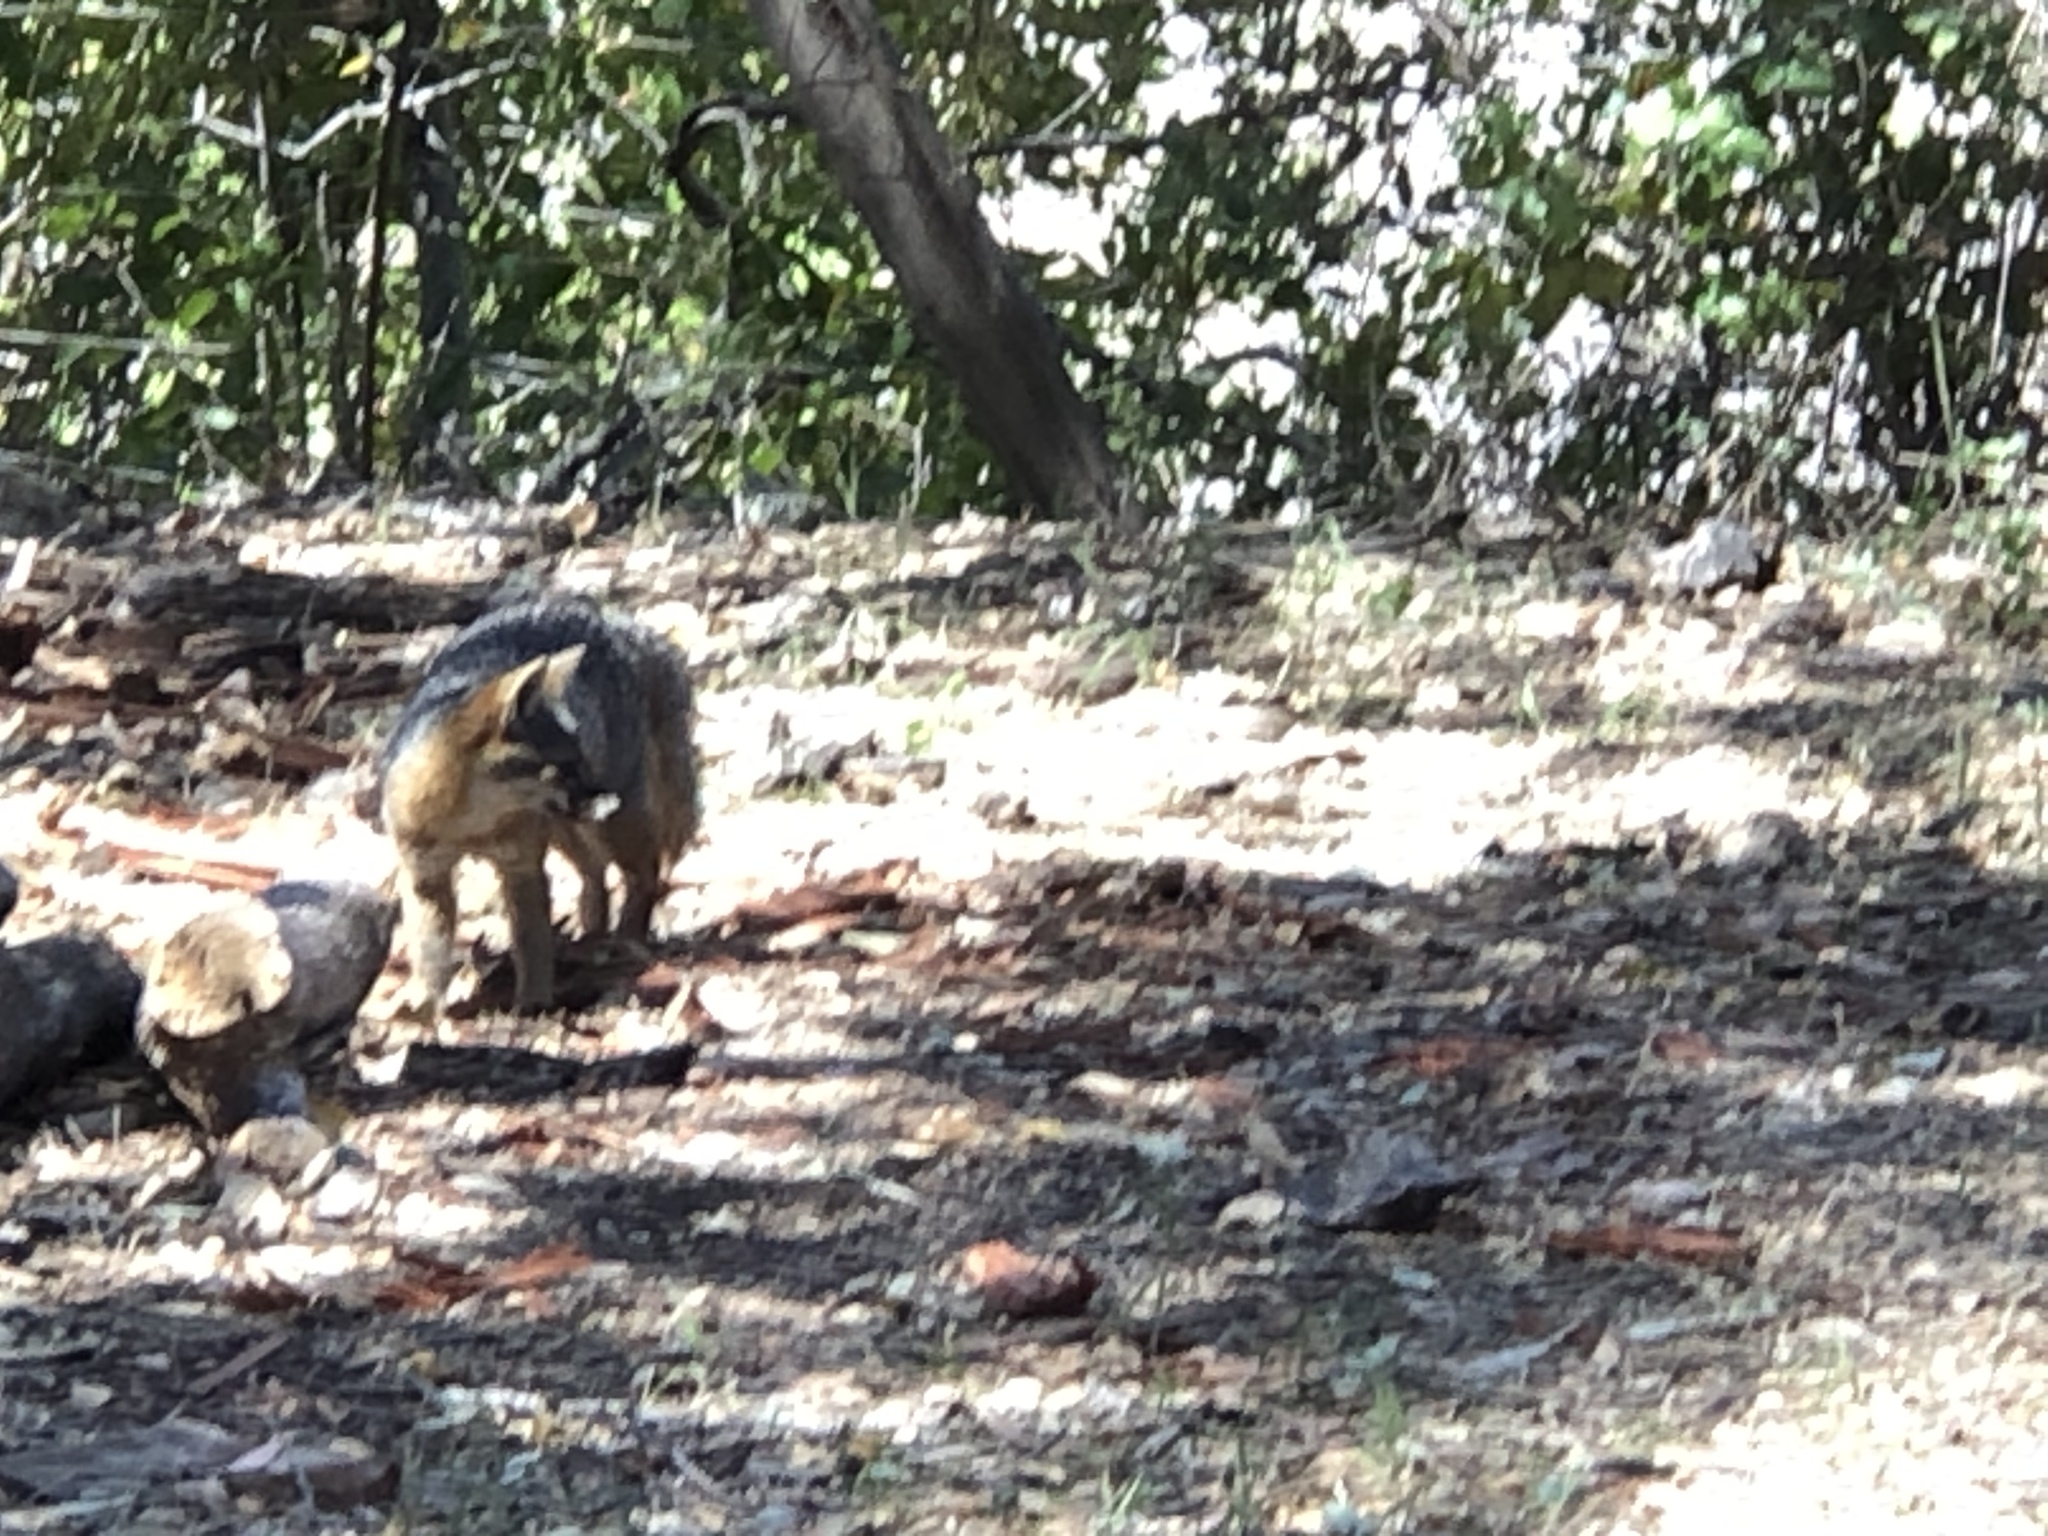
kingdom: Animalia
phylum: Chordata
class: Mammalia
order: Carnivora
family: Canidae
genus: Urocyon
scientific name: Urocyon littoralis
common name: Island gray fox
